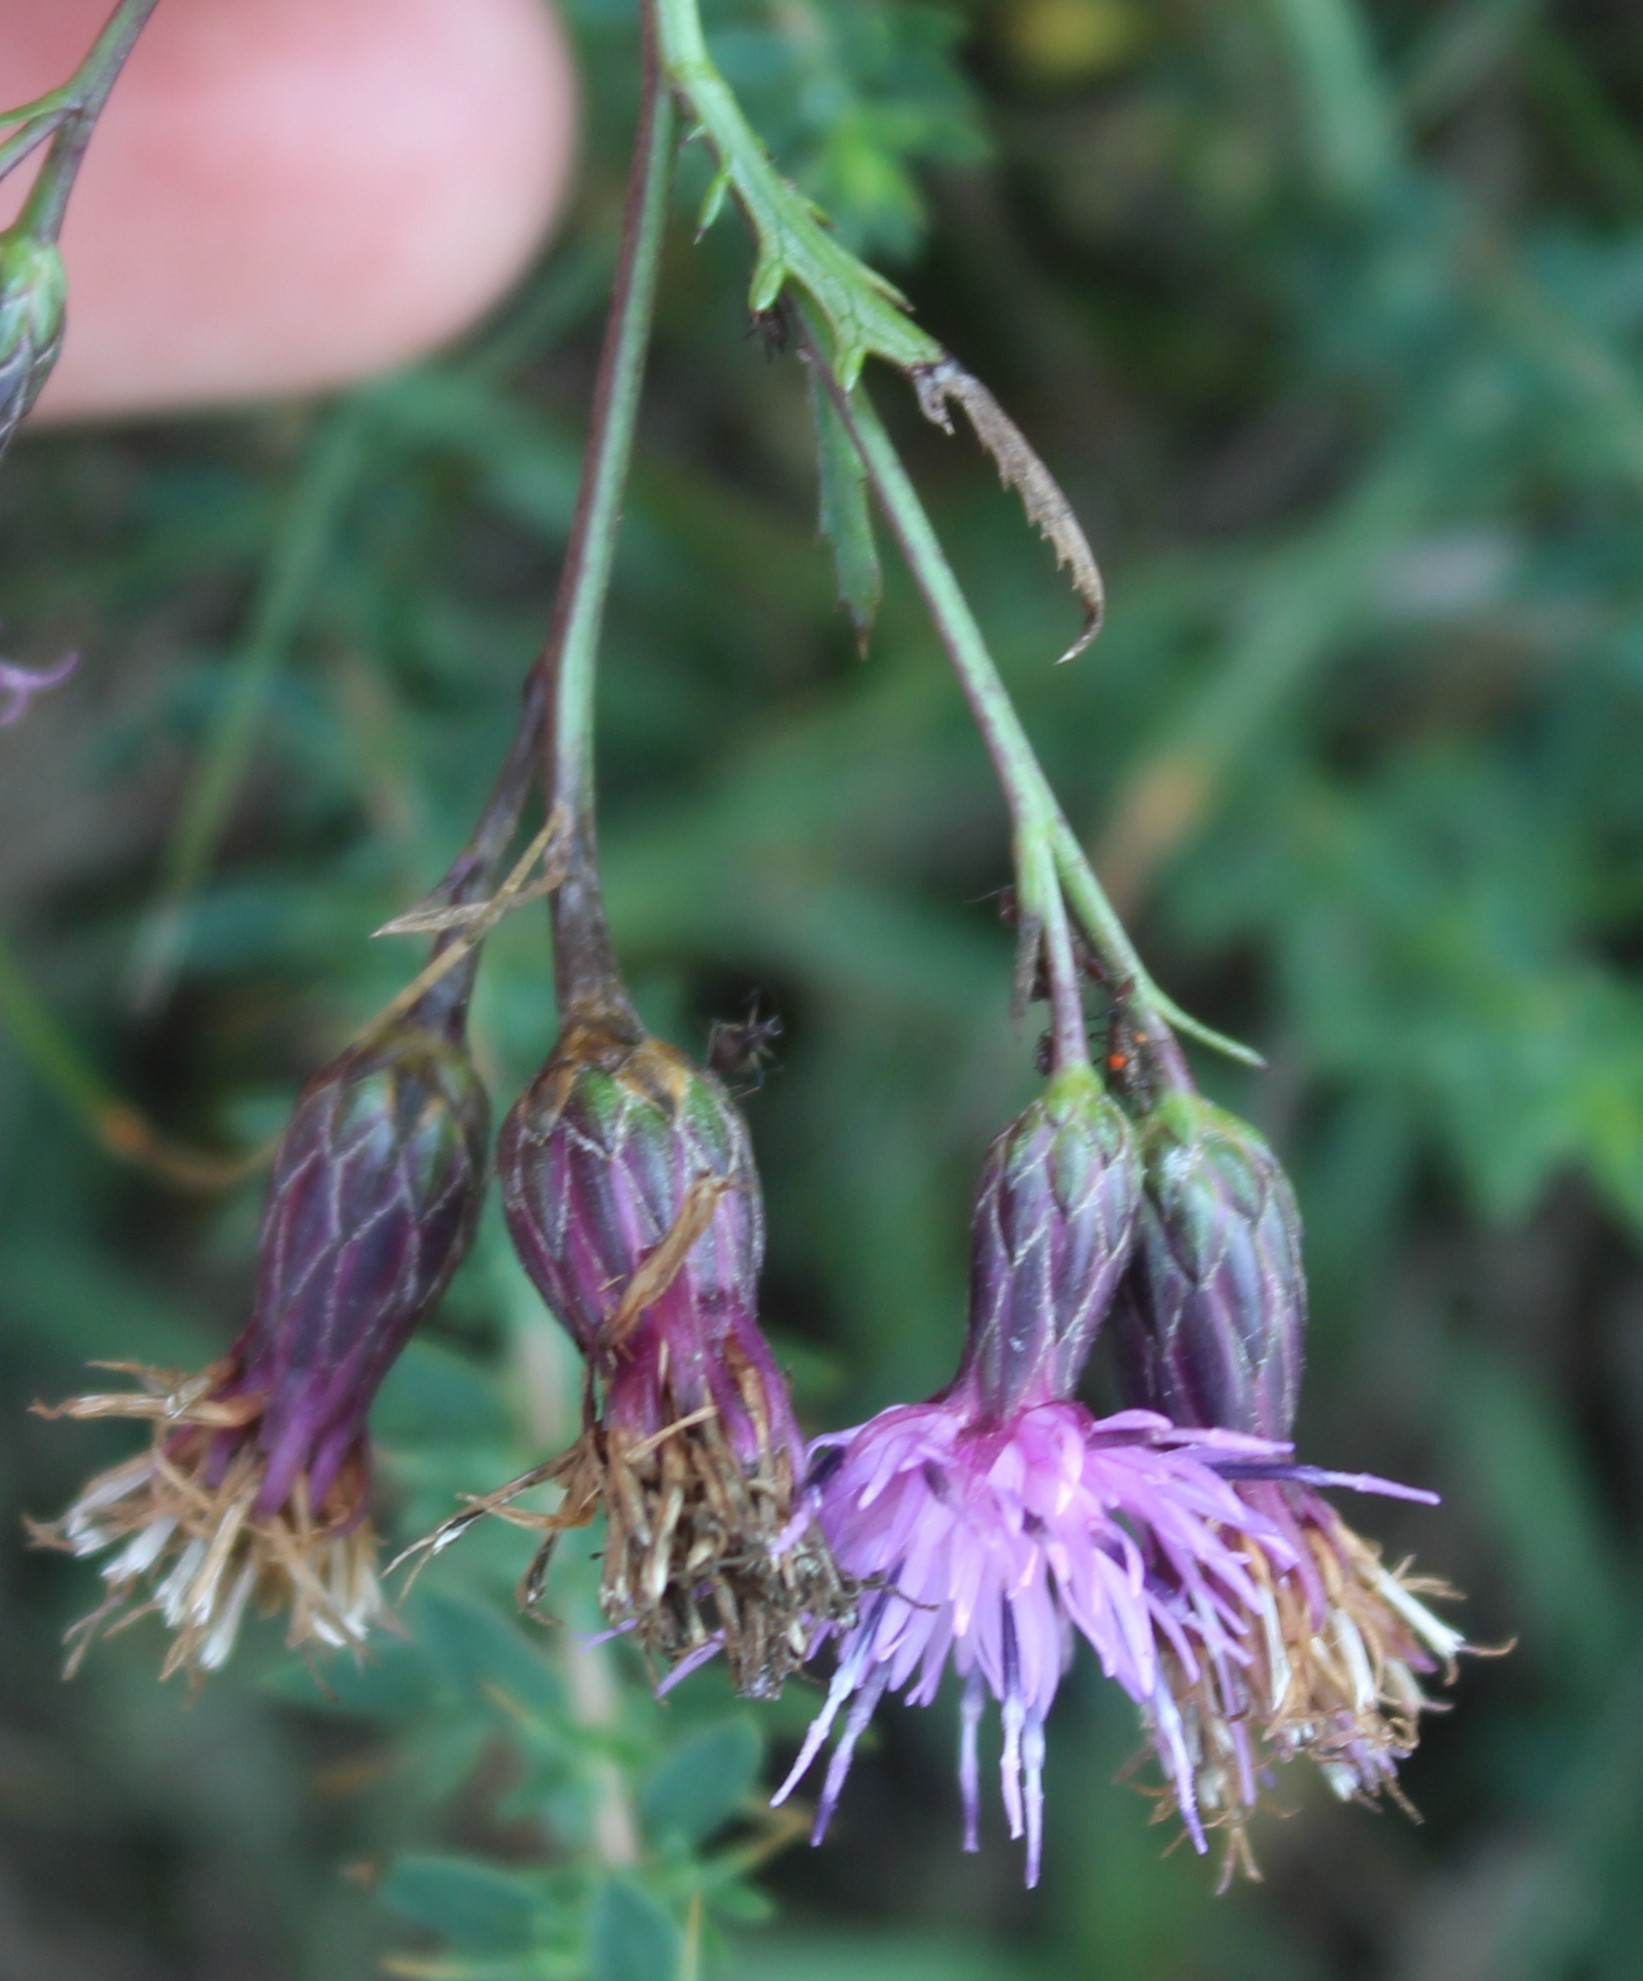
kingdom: Plantae
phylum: Tracheophyta
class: Magnoliopsida
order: Asterales
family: Asteraceae
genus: Serratula
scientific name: Serratula tinctoria
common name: Saw-wort
